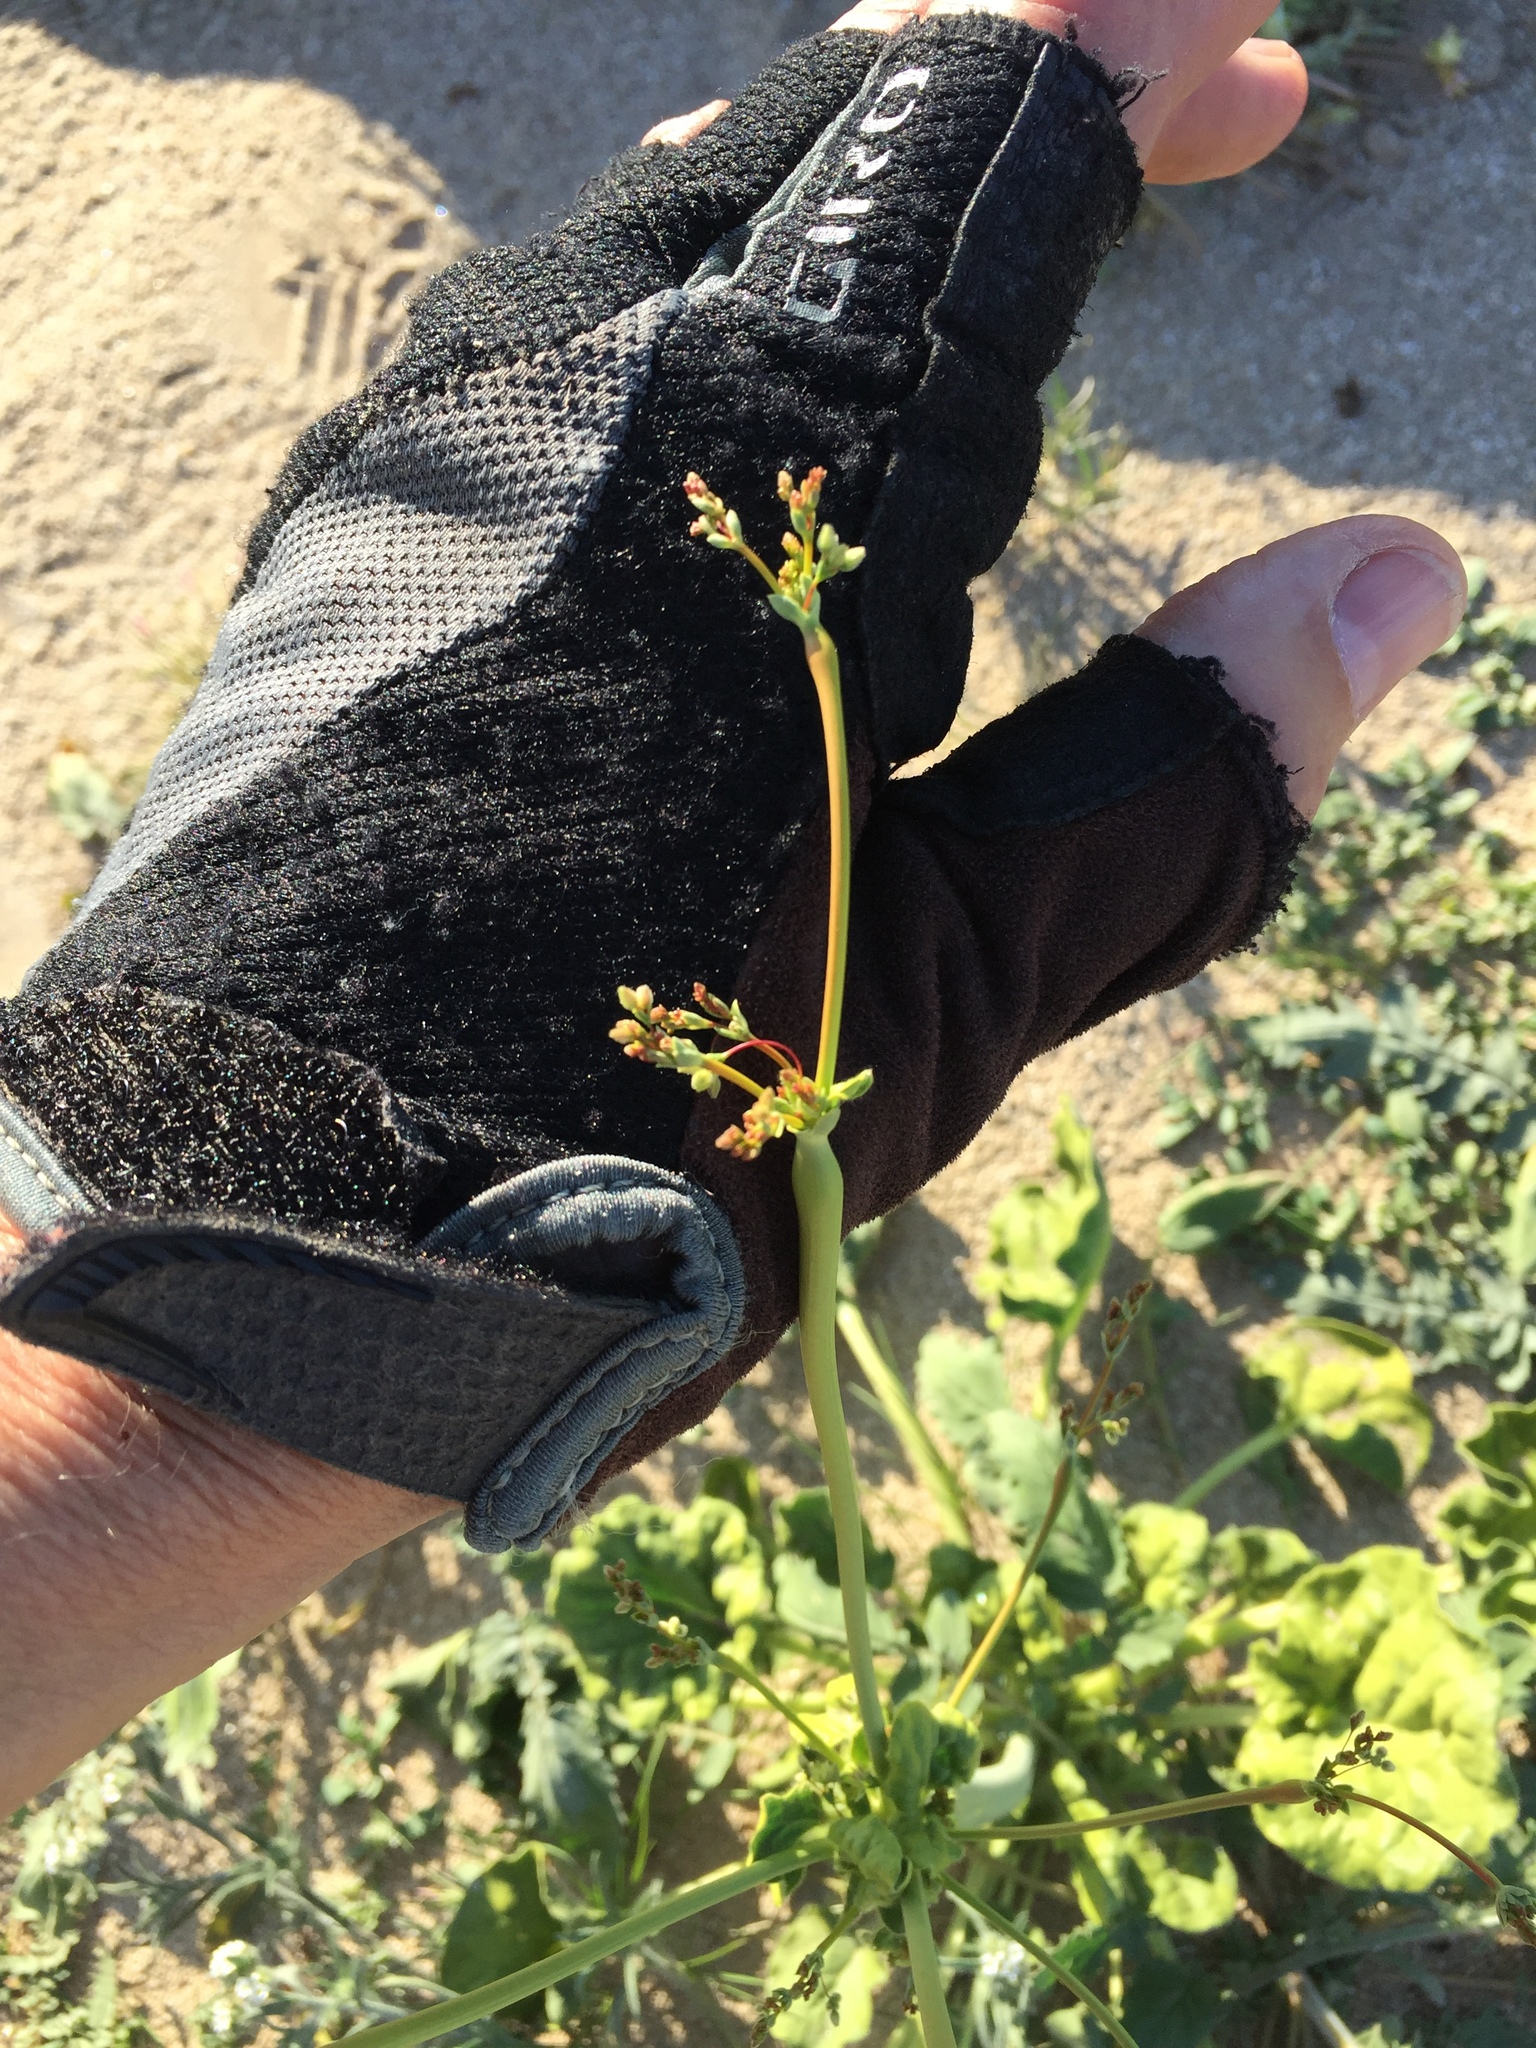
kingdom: Plantae
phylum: Tracheophyta
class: Magnoliopsida
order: Caryophyllales
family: Polygonaceae
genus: Eriogonum
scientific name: Eriogonum trichopes
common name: Little desert trumpet
